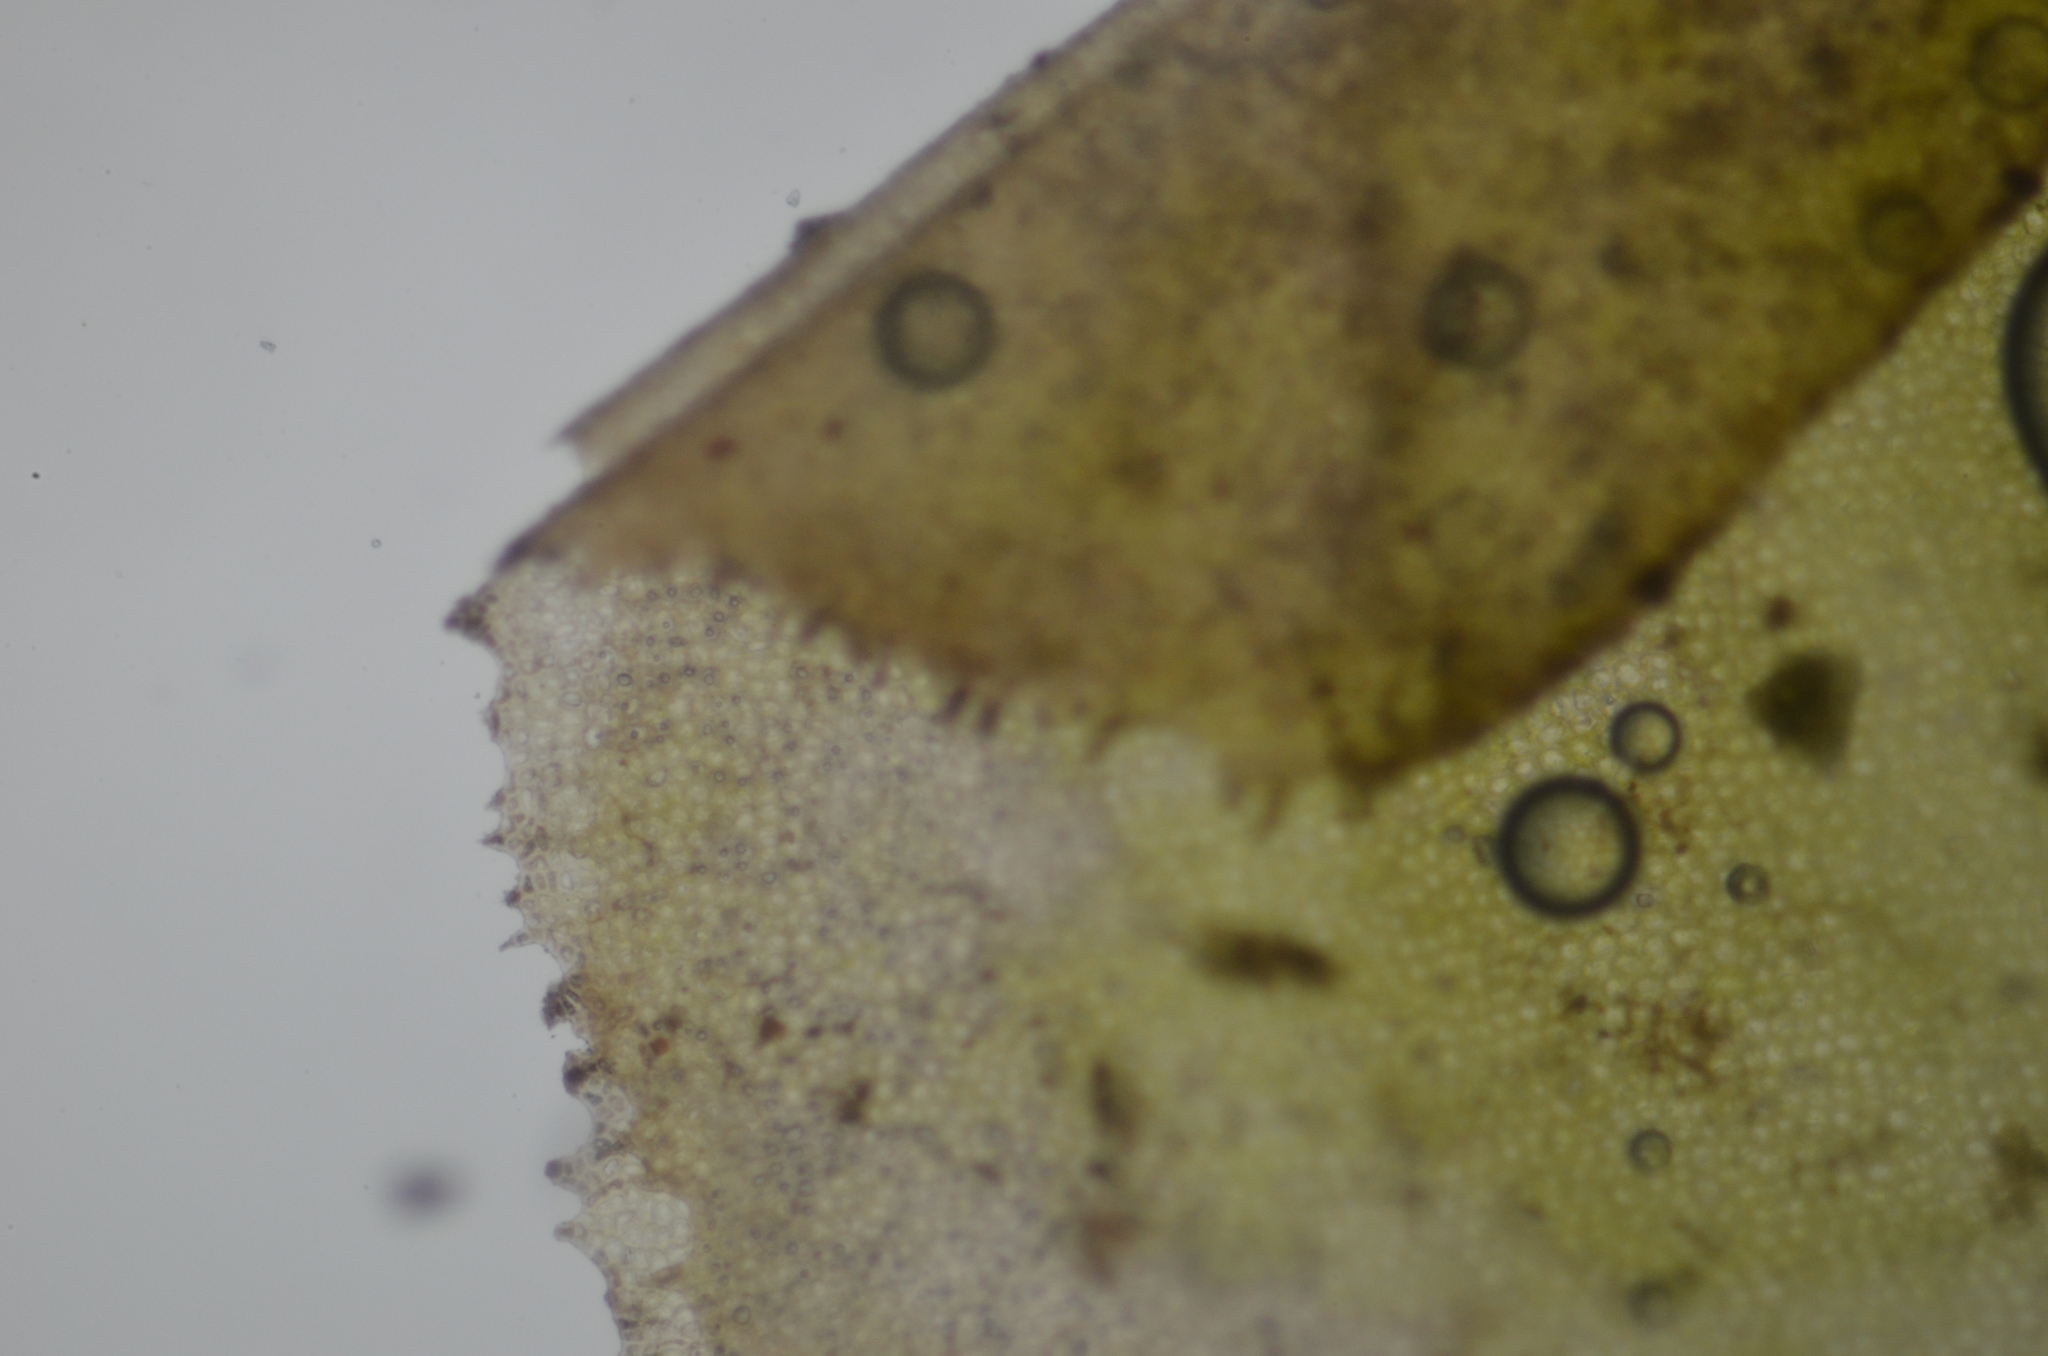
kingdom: Plantae
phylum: Marchantiophyta
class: Jungermanniopsida
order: Jungermanniales
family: Plagiochilaceae
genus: Plagiochila
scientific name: Plagiochila porelloides
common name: Lesser featherwort
